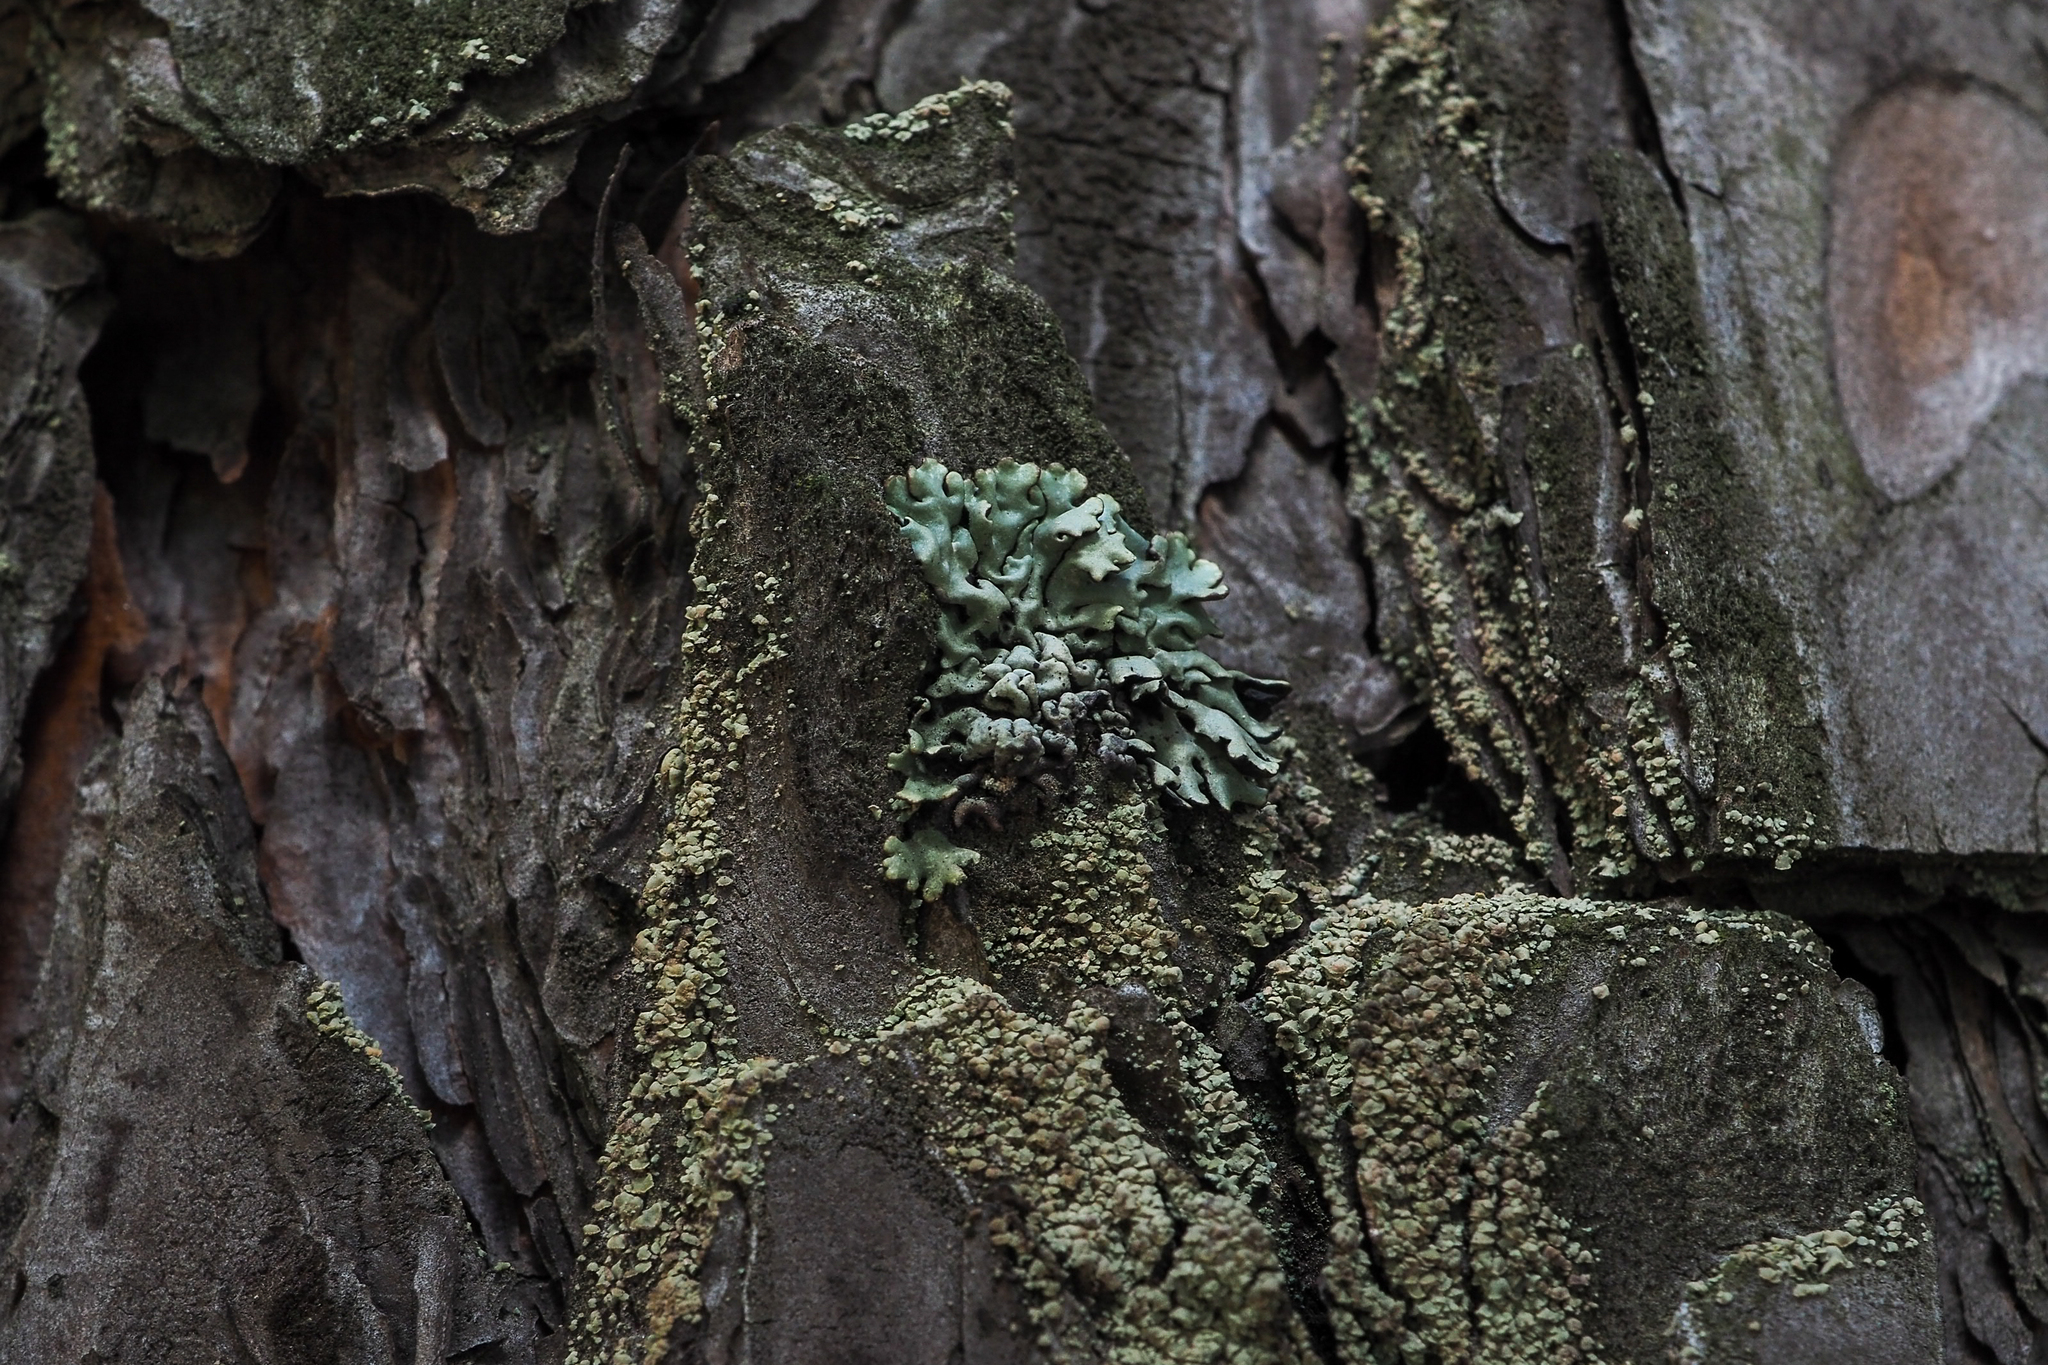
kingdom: Fungi
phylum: Ascomycota
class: Lecanoromycetes
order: Lecanorales
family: Parmeliaceae
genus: Hypogymnia
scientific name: Hypogymnia physodes
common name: Dark crottle
